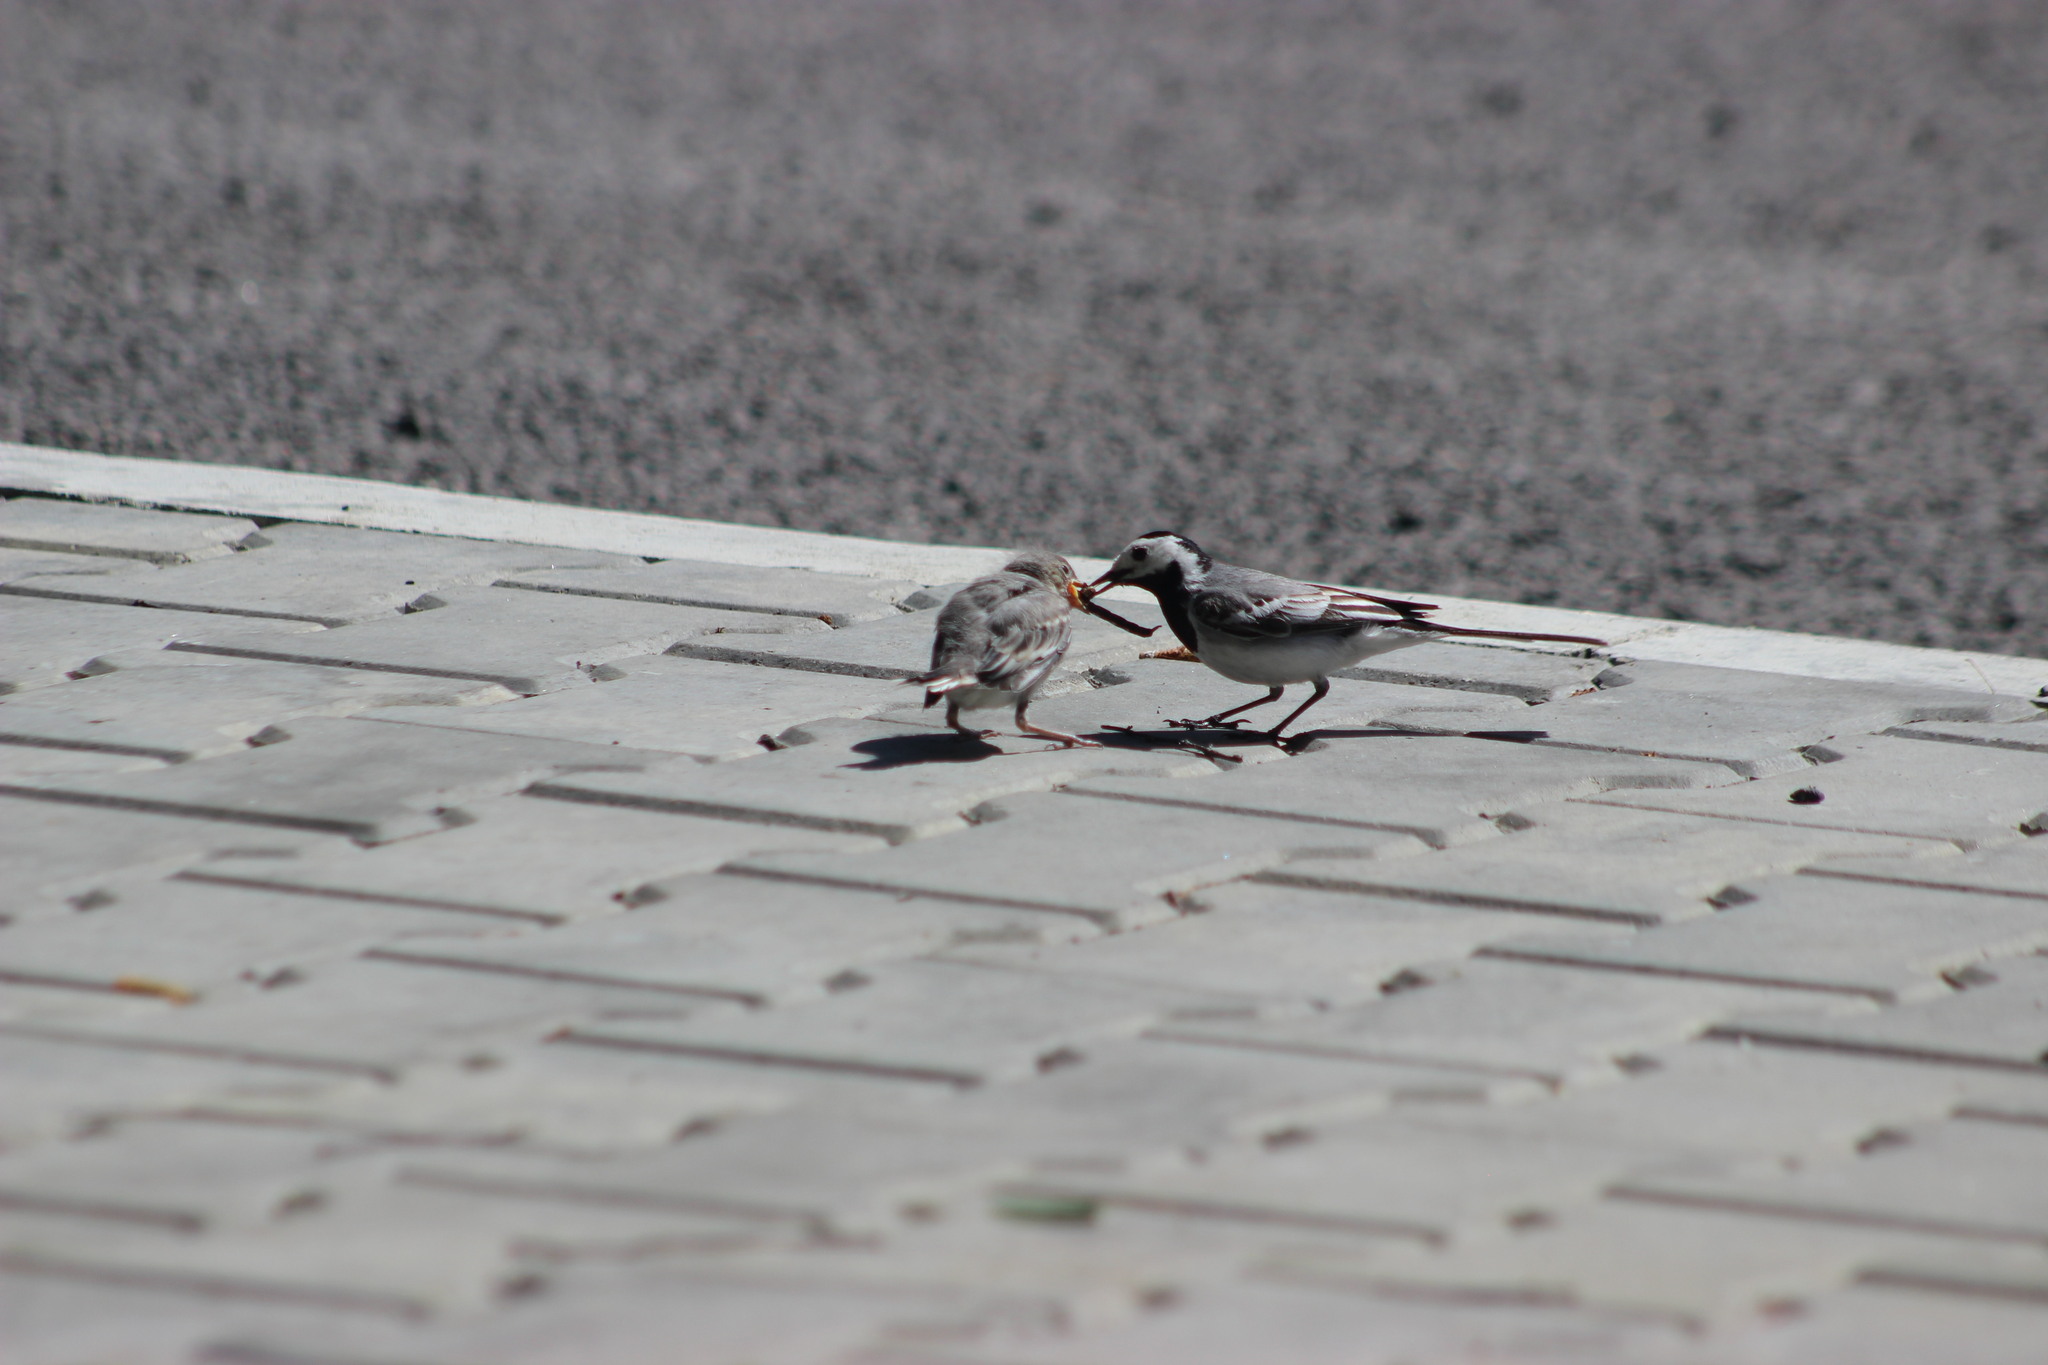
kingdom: Animalia
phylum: Chordata
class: Aves
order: Passeriformes
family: Motacillidae
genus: Motacilla
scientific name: Motacilla alba
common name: White wagtail
